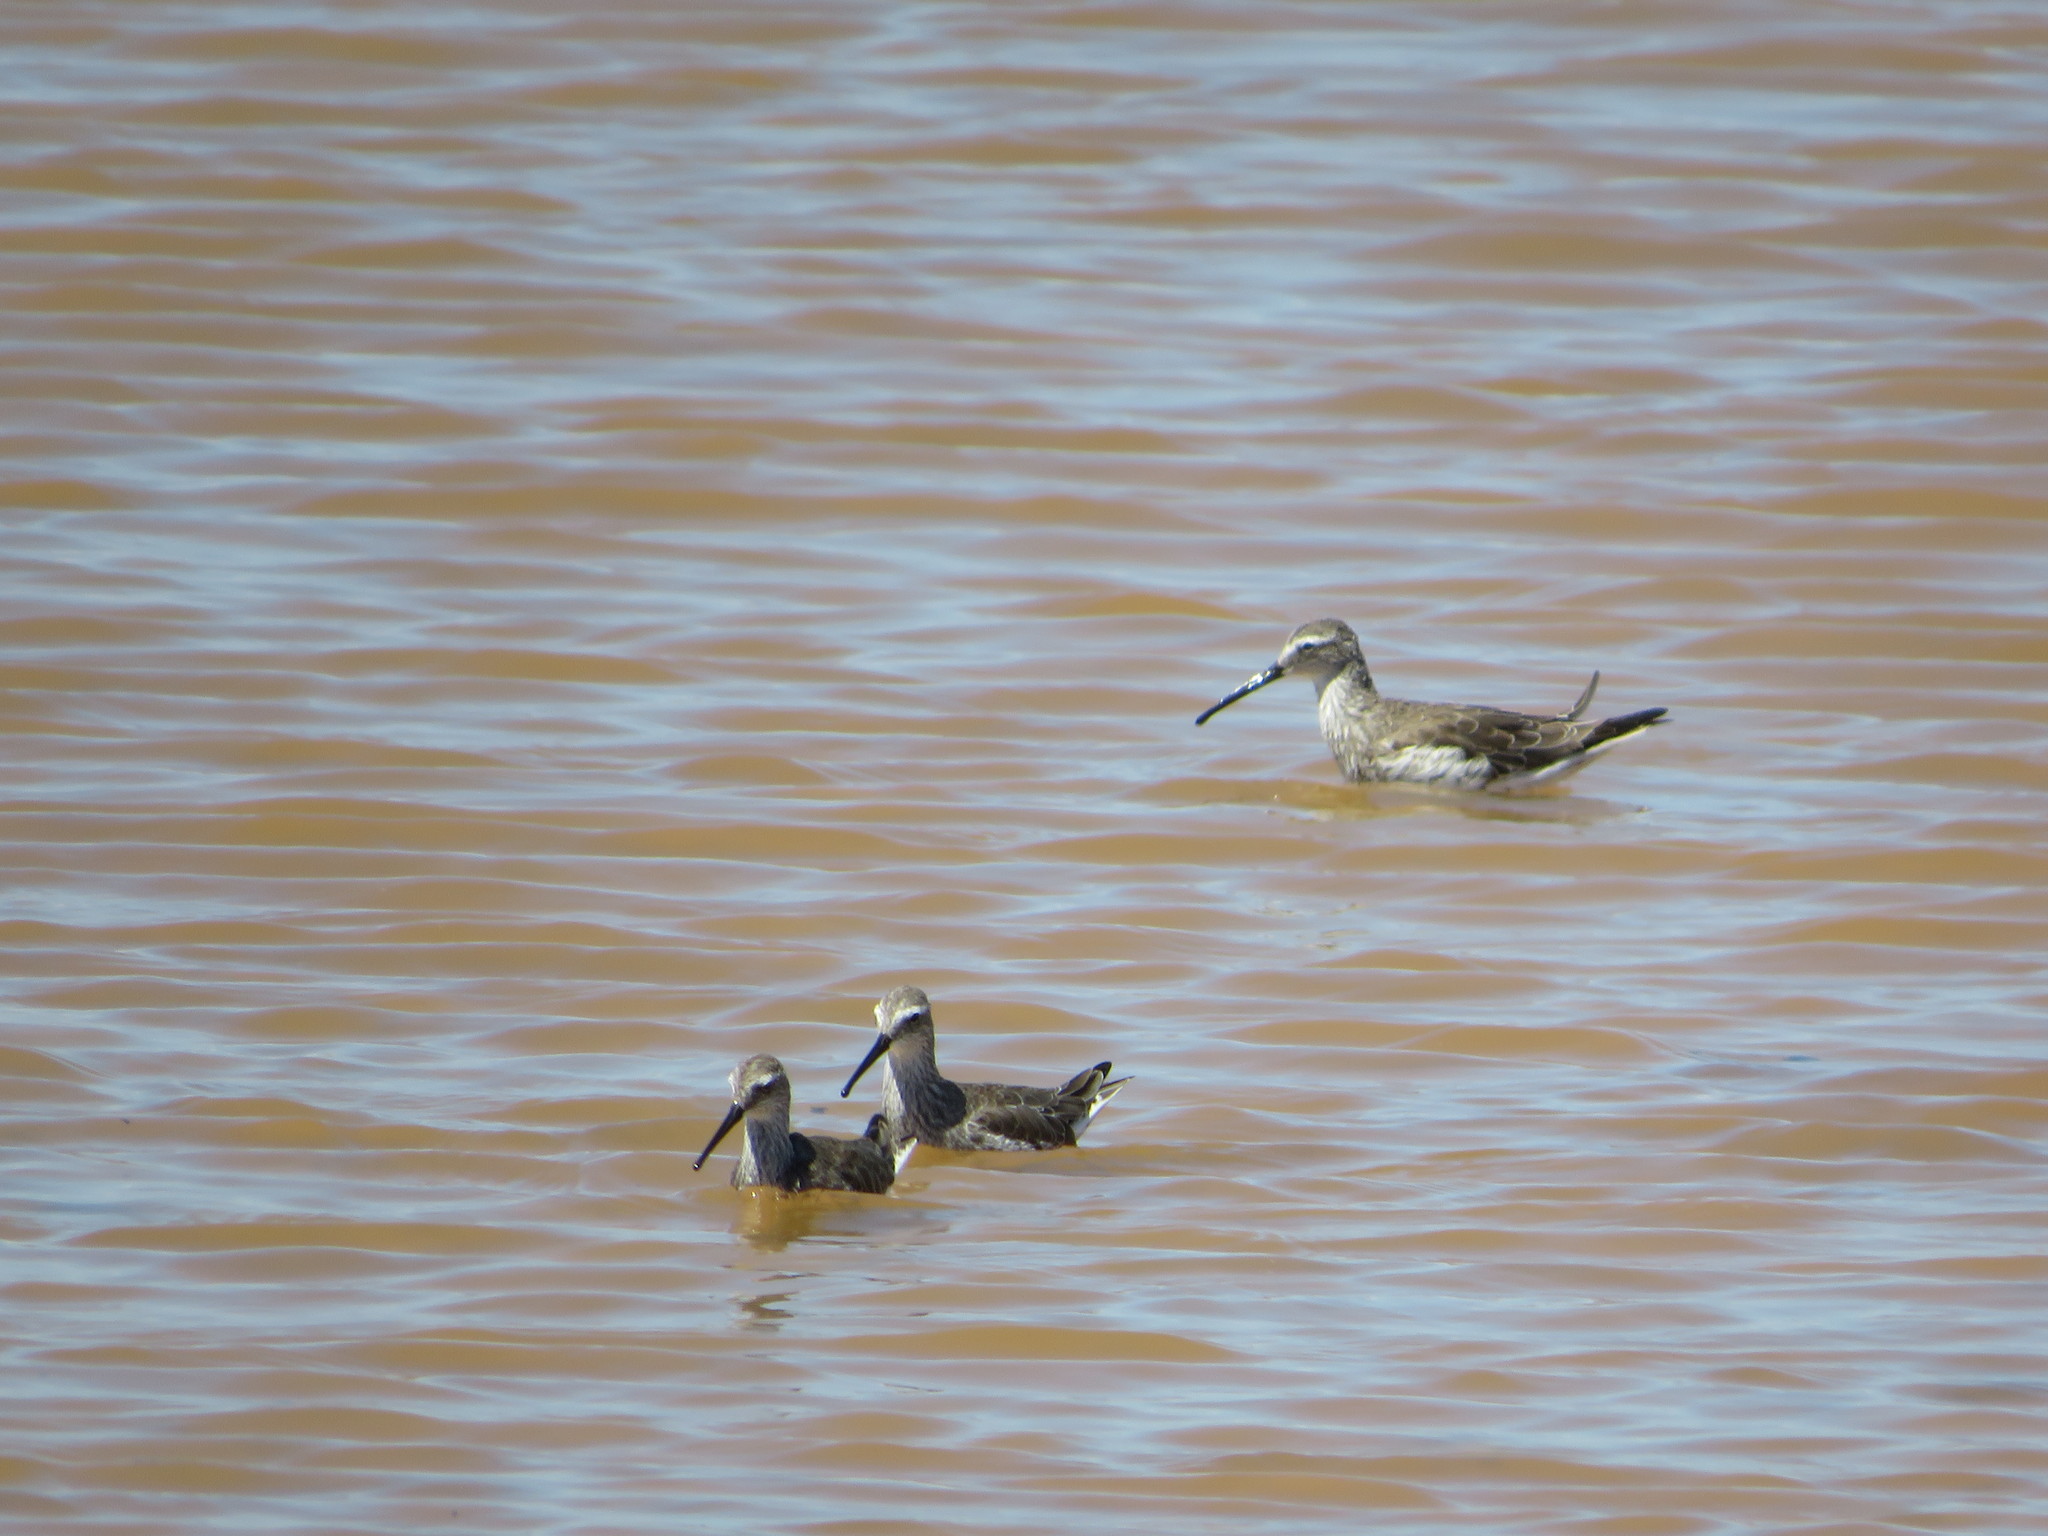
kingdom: Animalia
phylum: Chordata
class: Aves
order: Charadriiformes
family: Scolopacidae
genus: Calidris
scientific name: Calidris himantopus
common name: Stilt sandpiper
